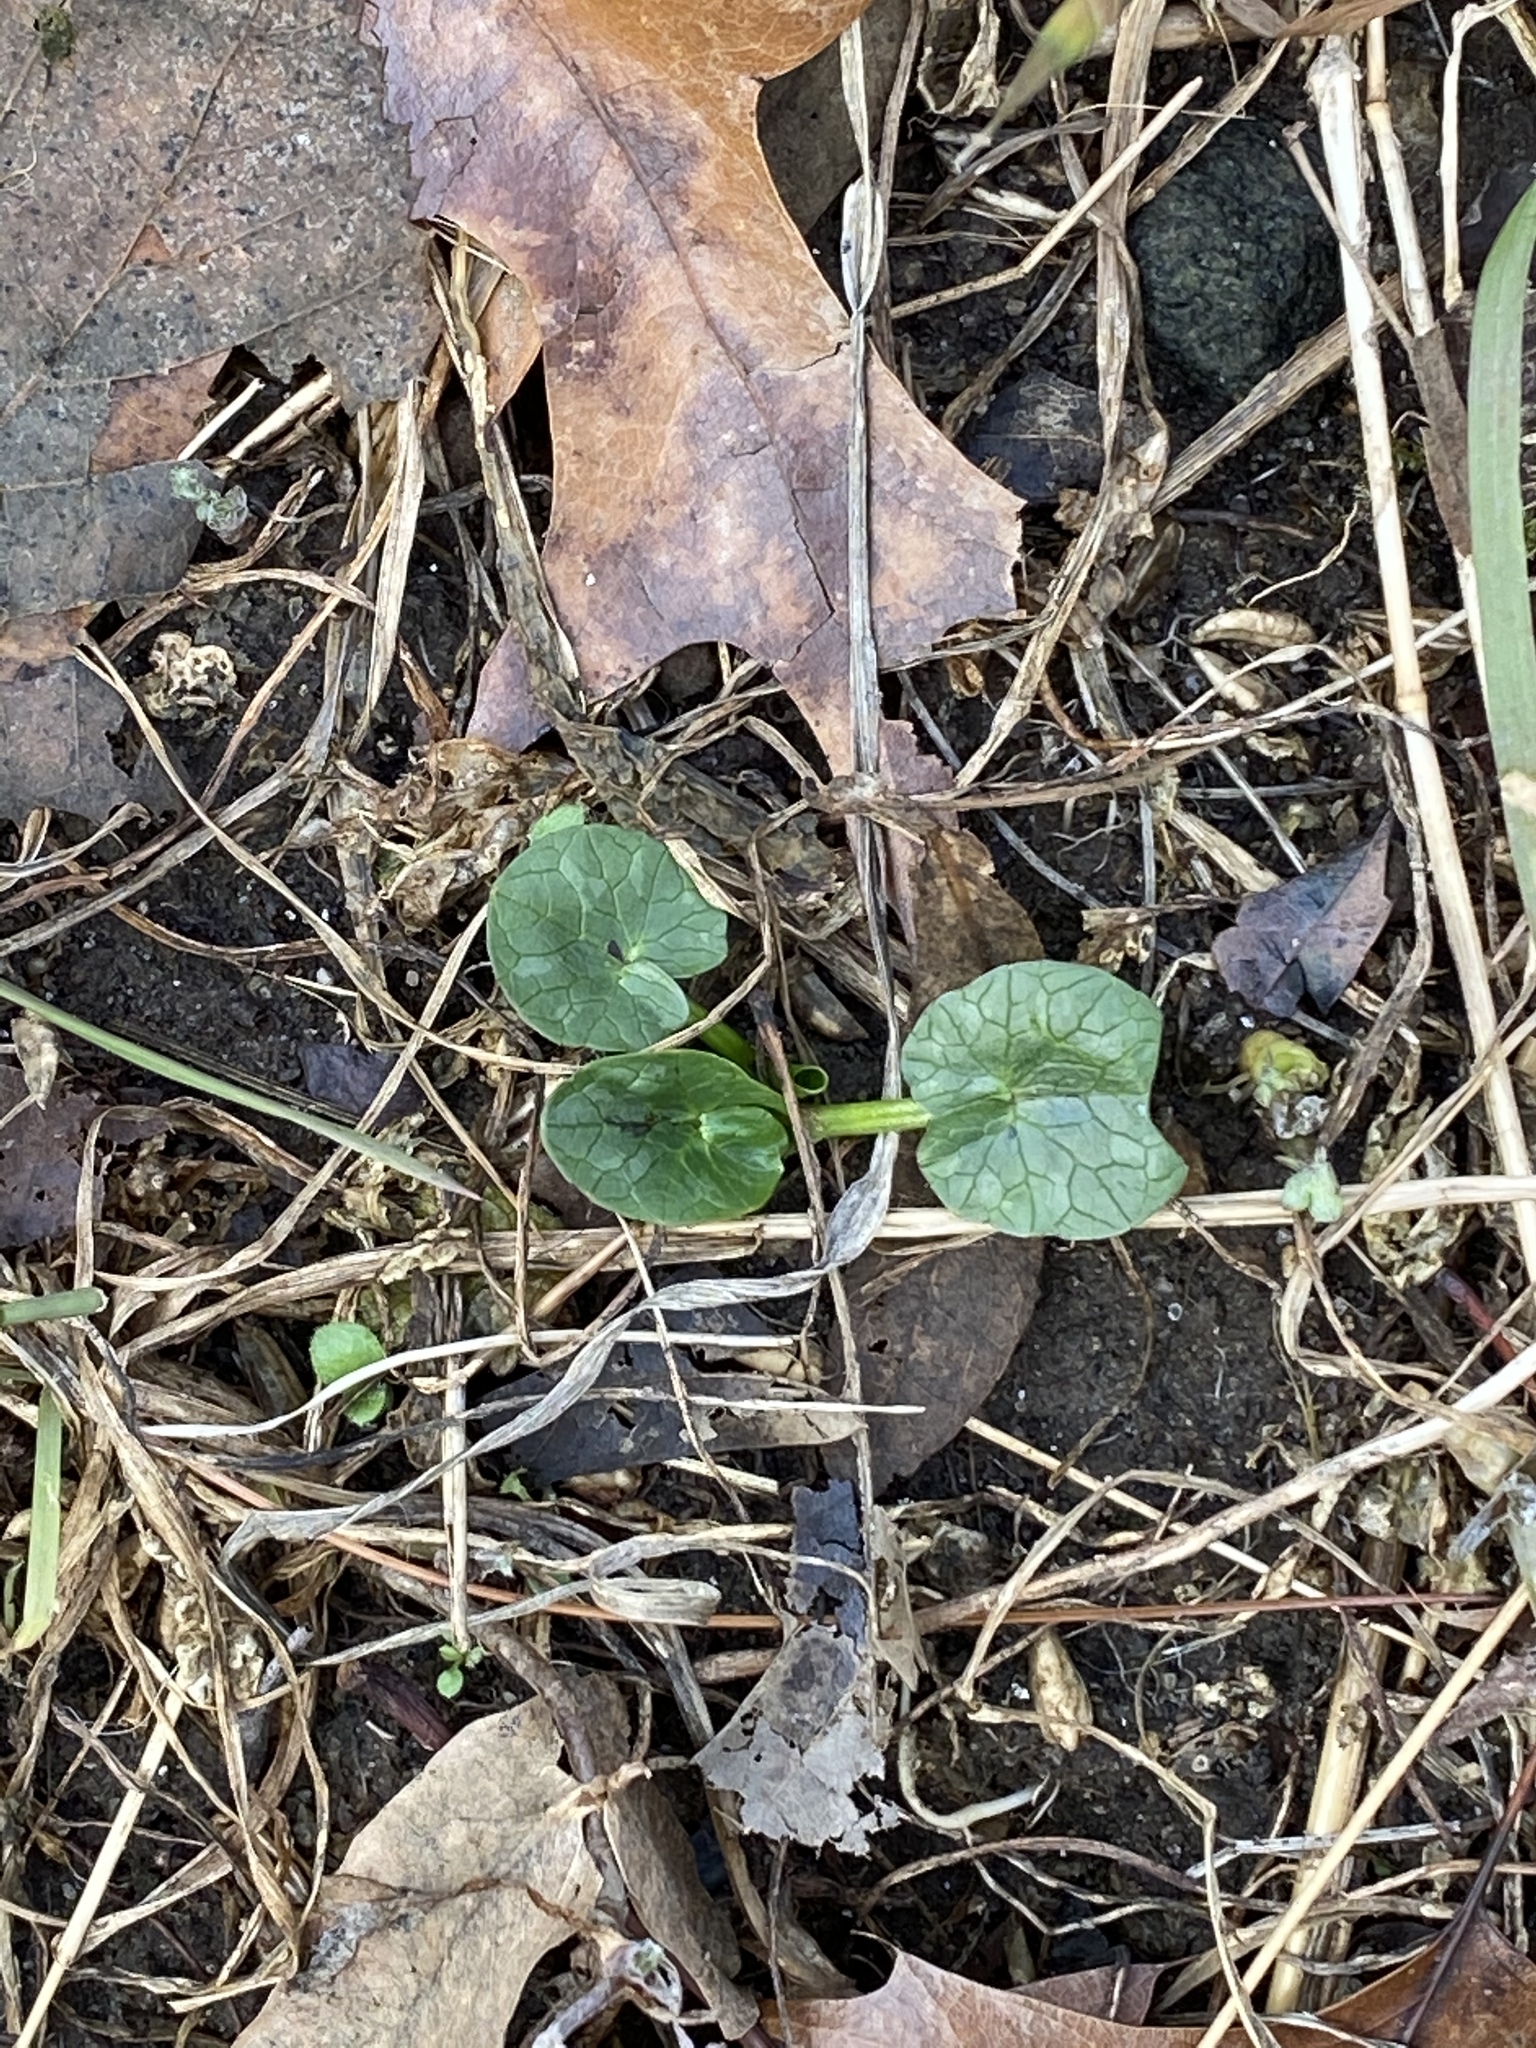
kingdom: Plantae
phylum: Tracheophyta
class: Magnoliopsida
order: Ranunculales
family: Ranunculaceae
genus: Ficaria
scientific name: Ficaria verna
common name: Lesser celandine
